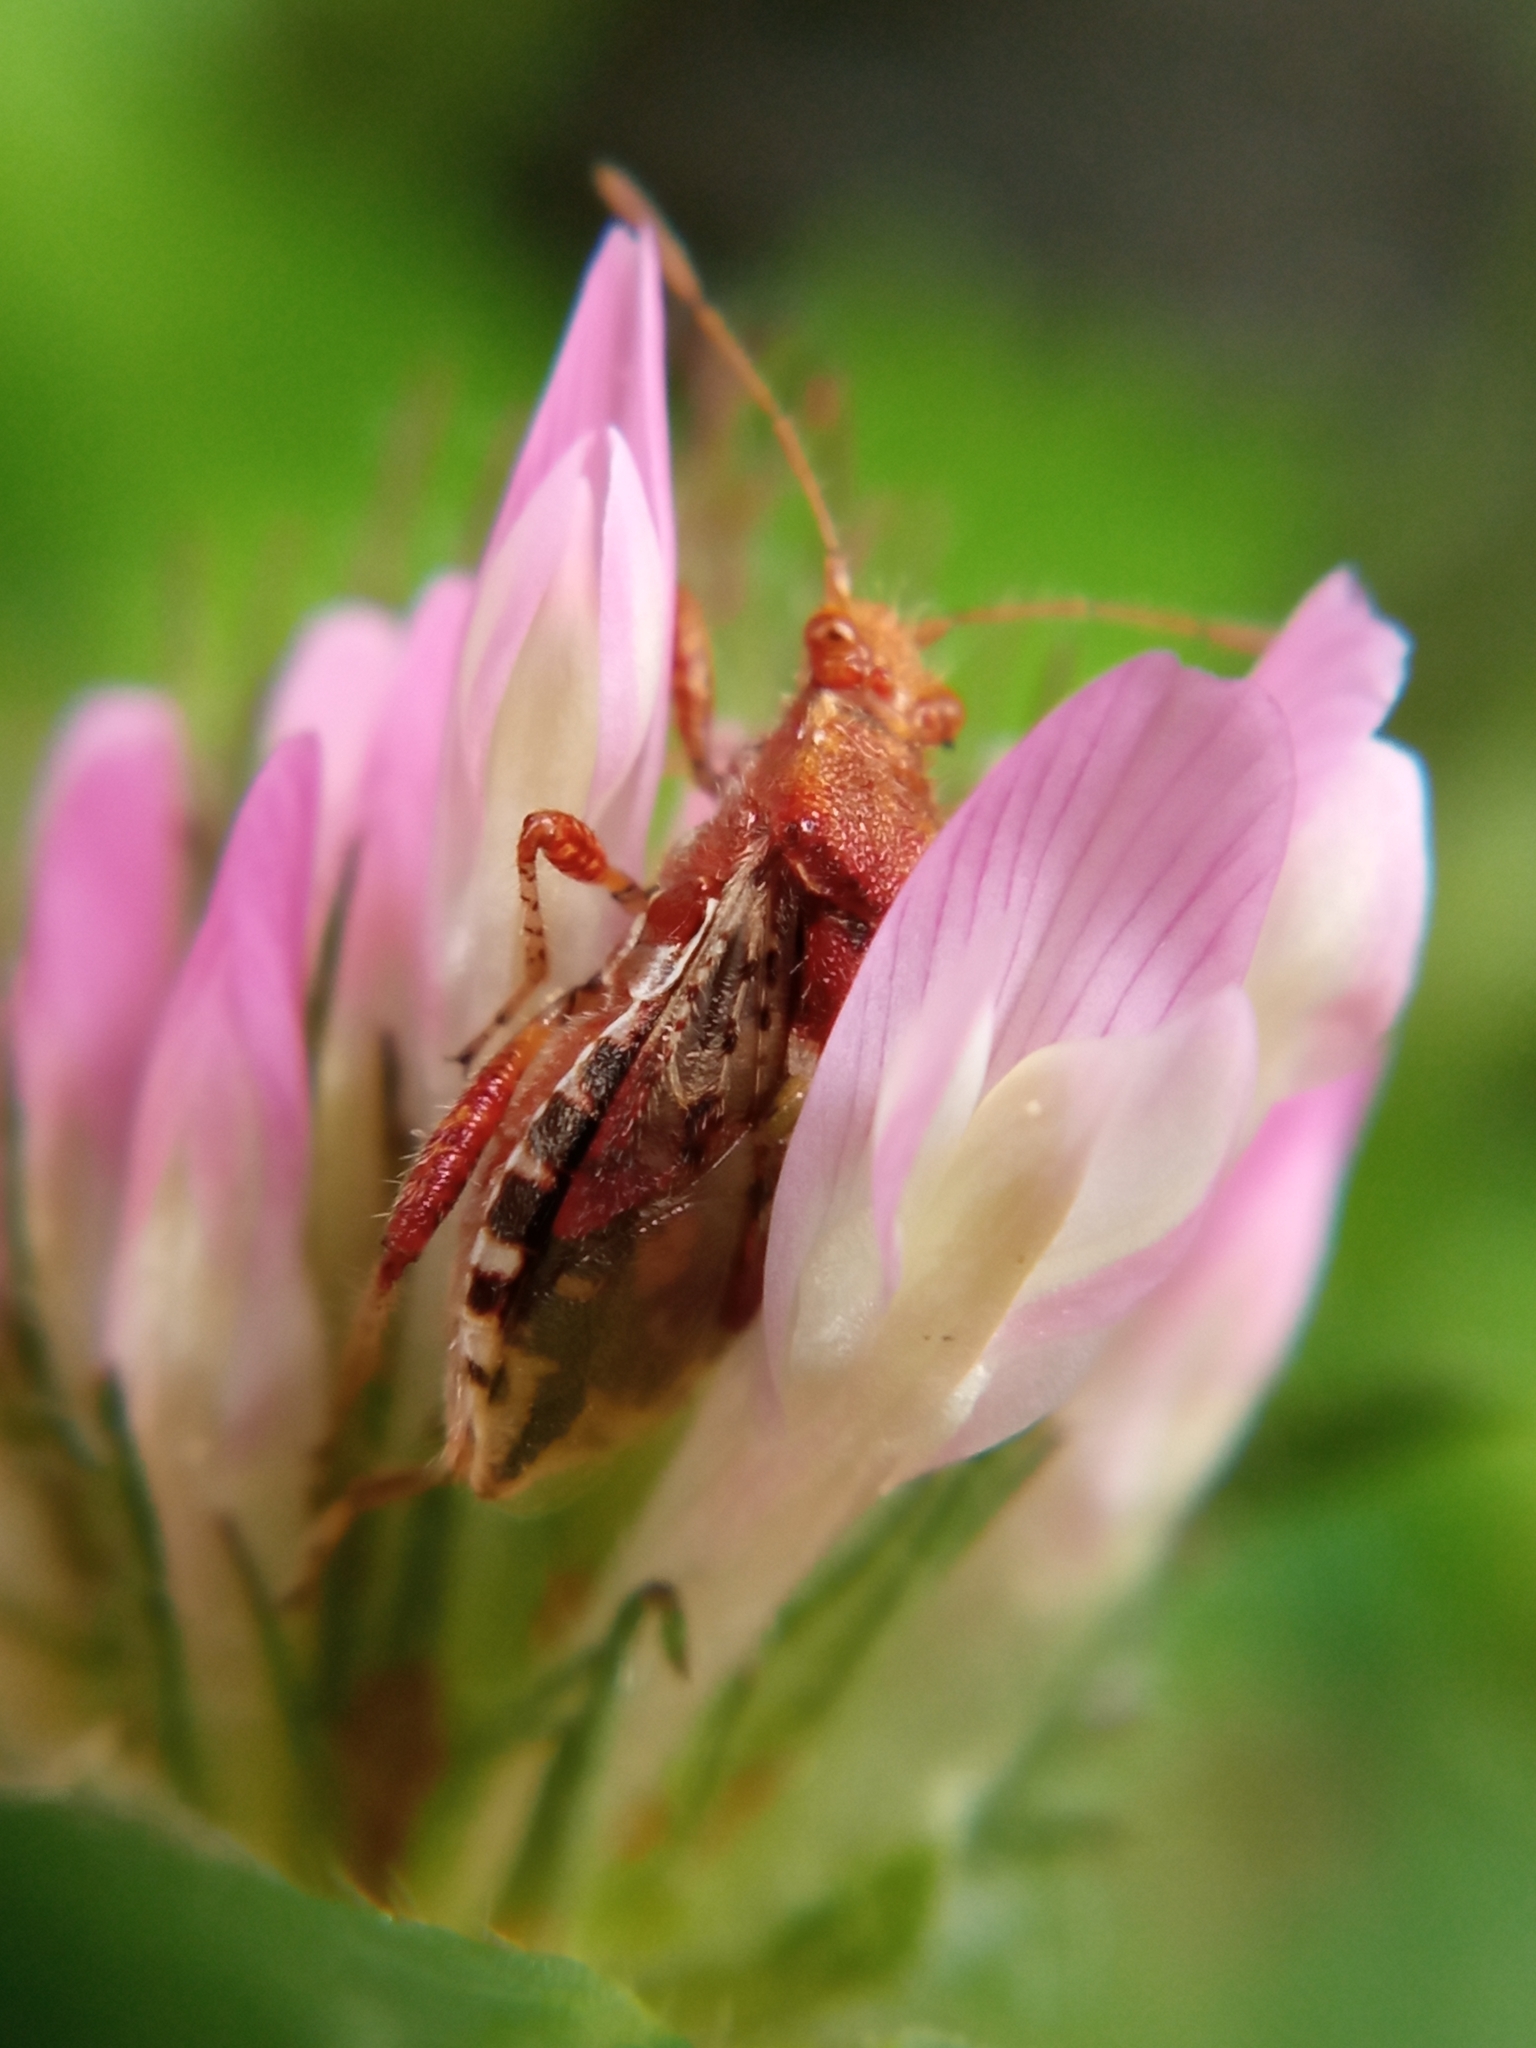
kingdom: Animalia
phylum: Arthropoda
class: Insecta
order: Hemiptera
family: Rhopalidae
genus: Rhopalus
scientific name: Rhopalus subrufus
